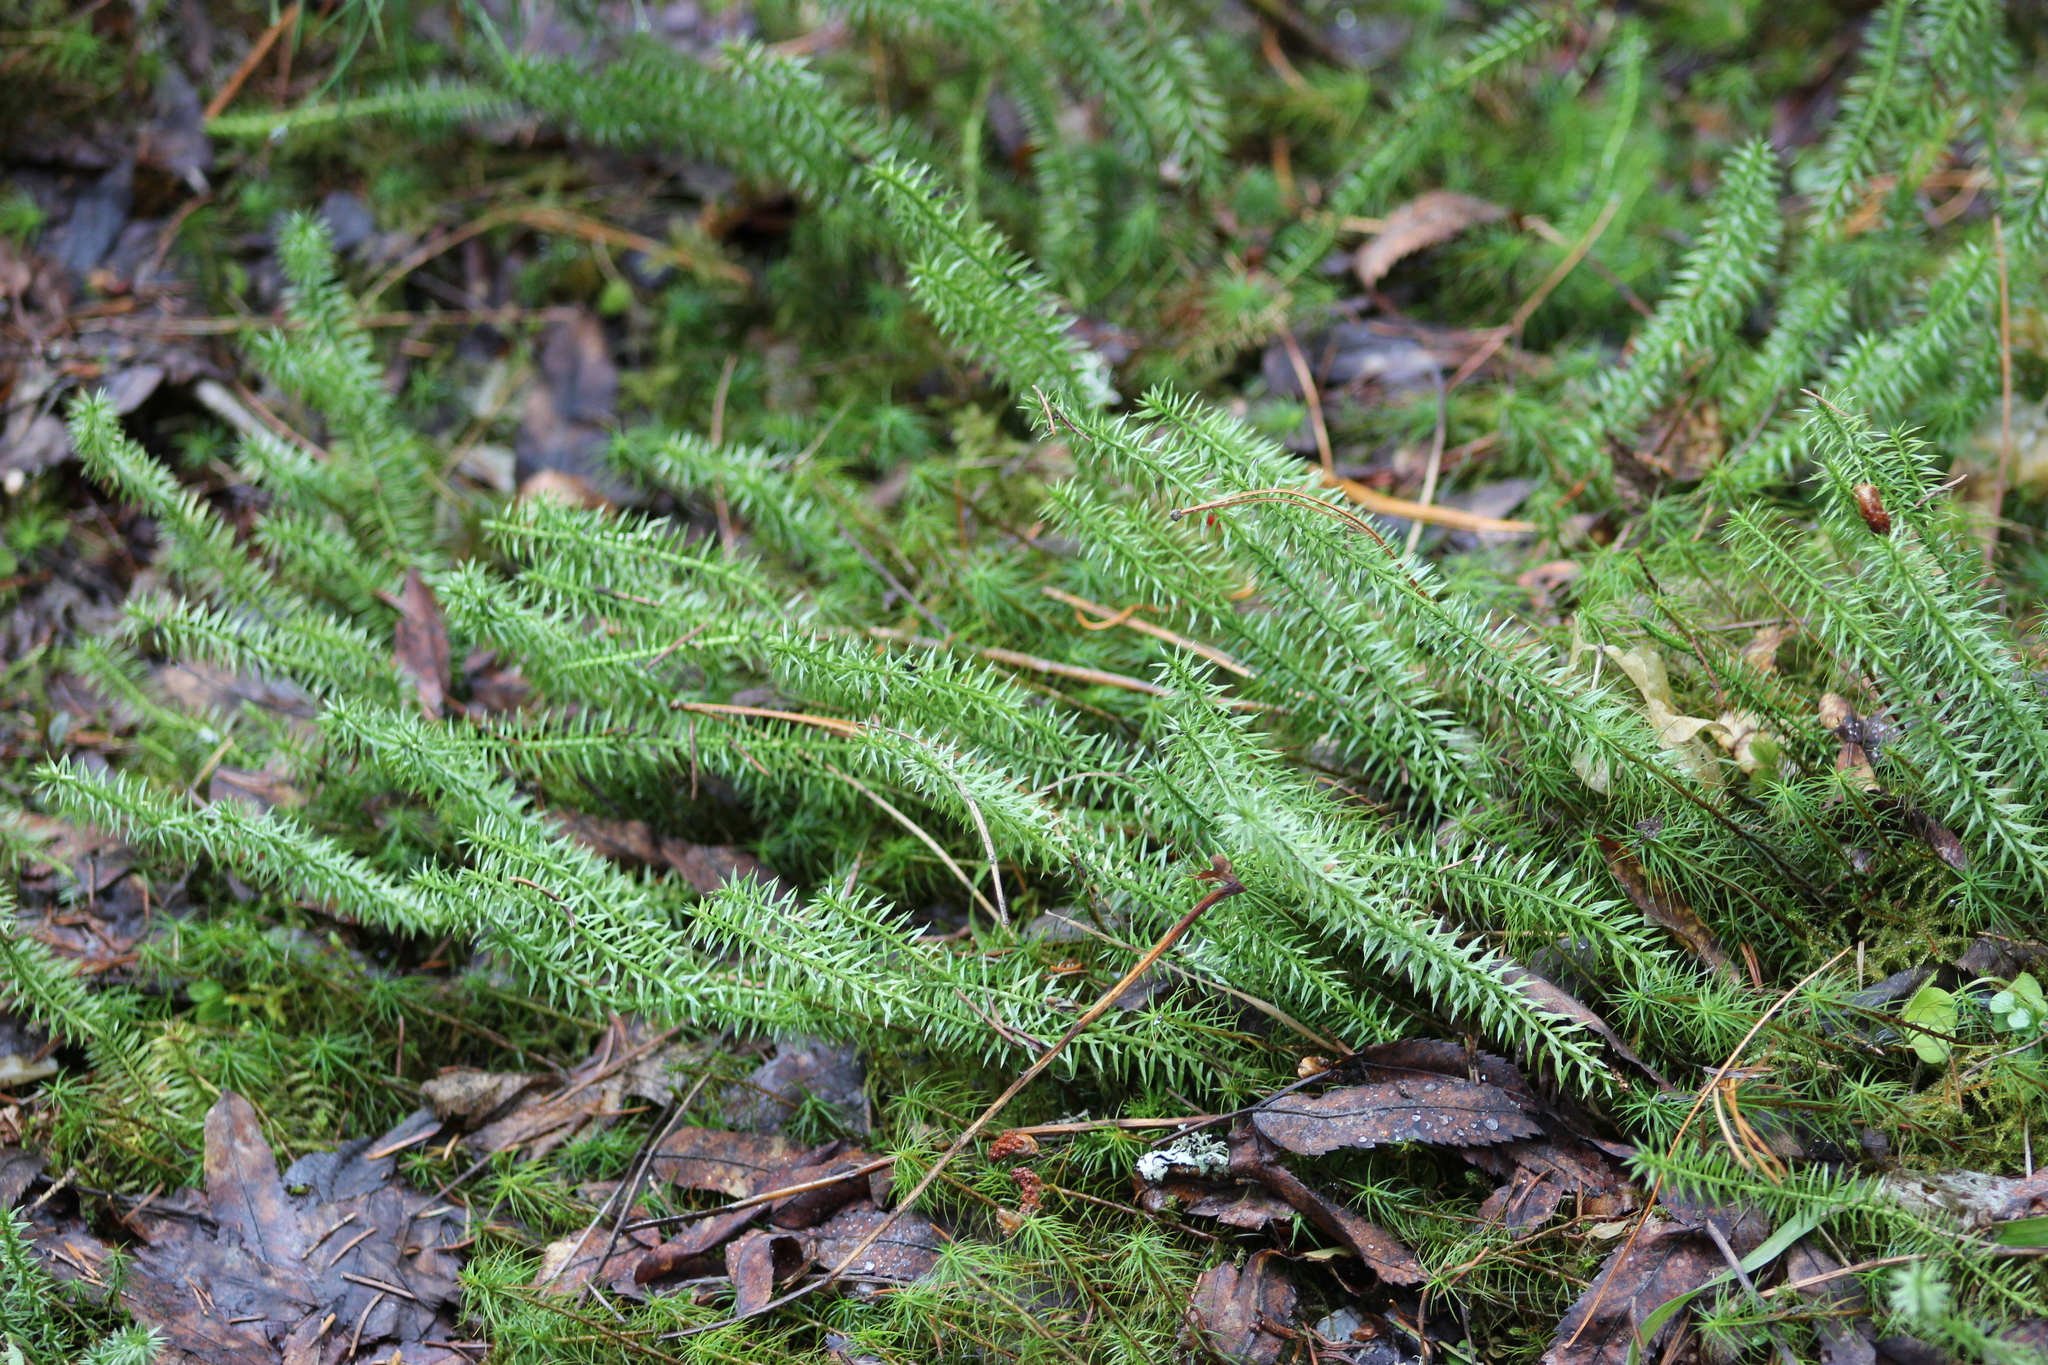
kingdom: Plantae
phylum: Tracheophyta
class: Lycopodiopsida
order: Lycopodiales
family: Lycopodiaceae
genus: Spinulum
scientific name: Spinulum annotinum
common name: Interrupted club-moss
